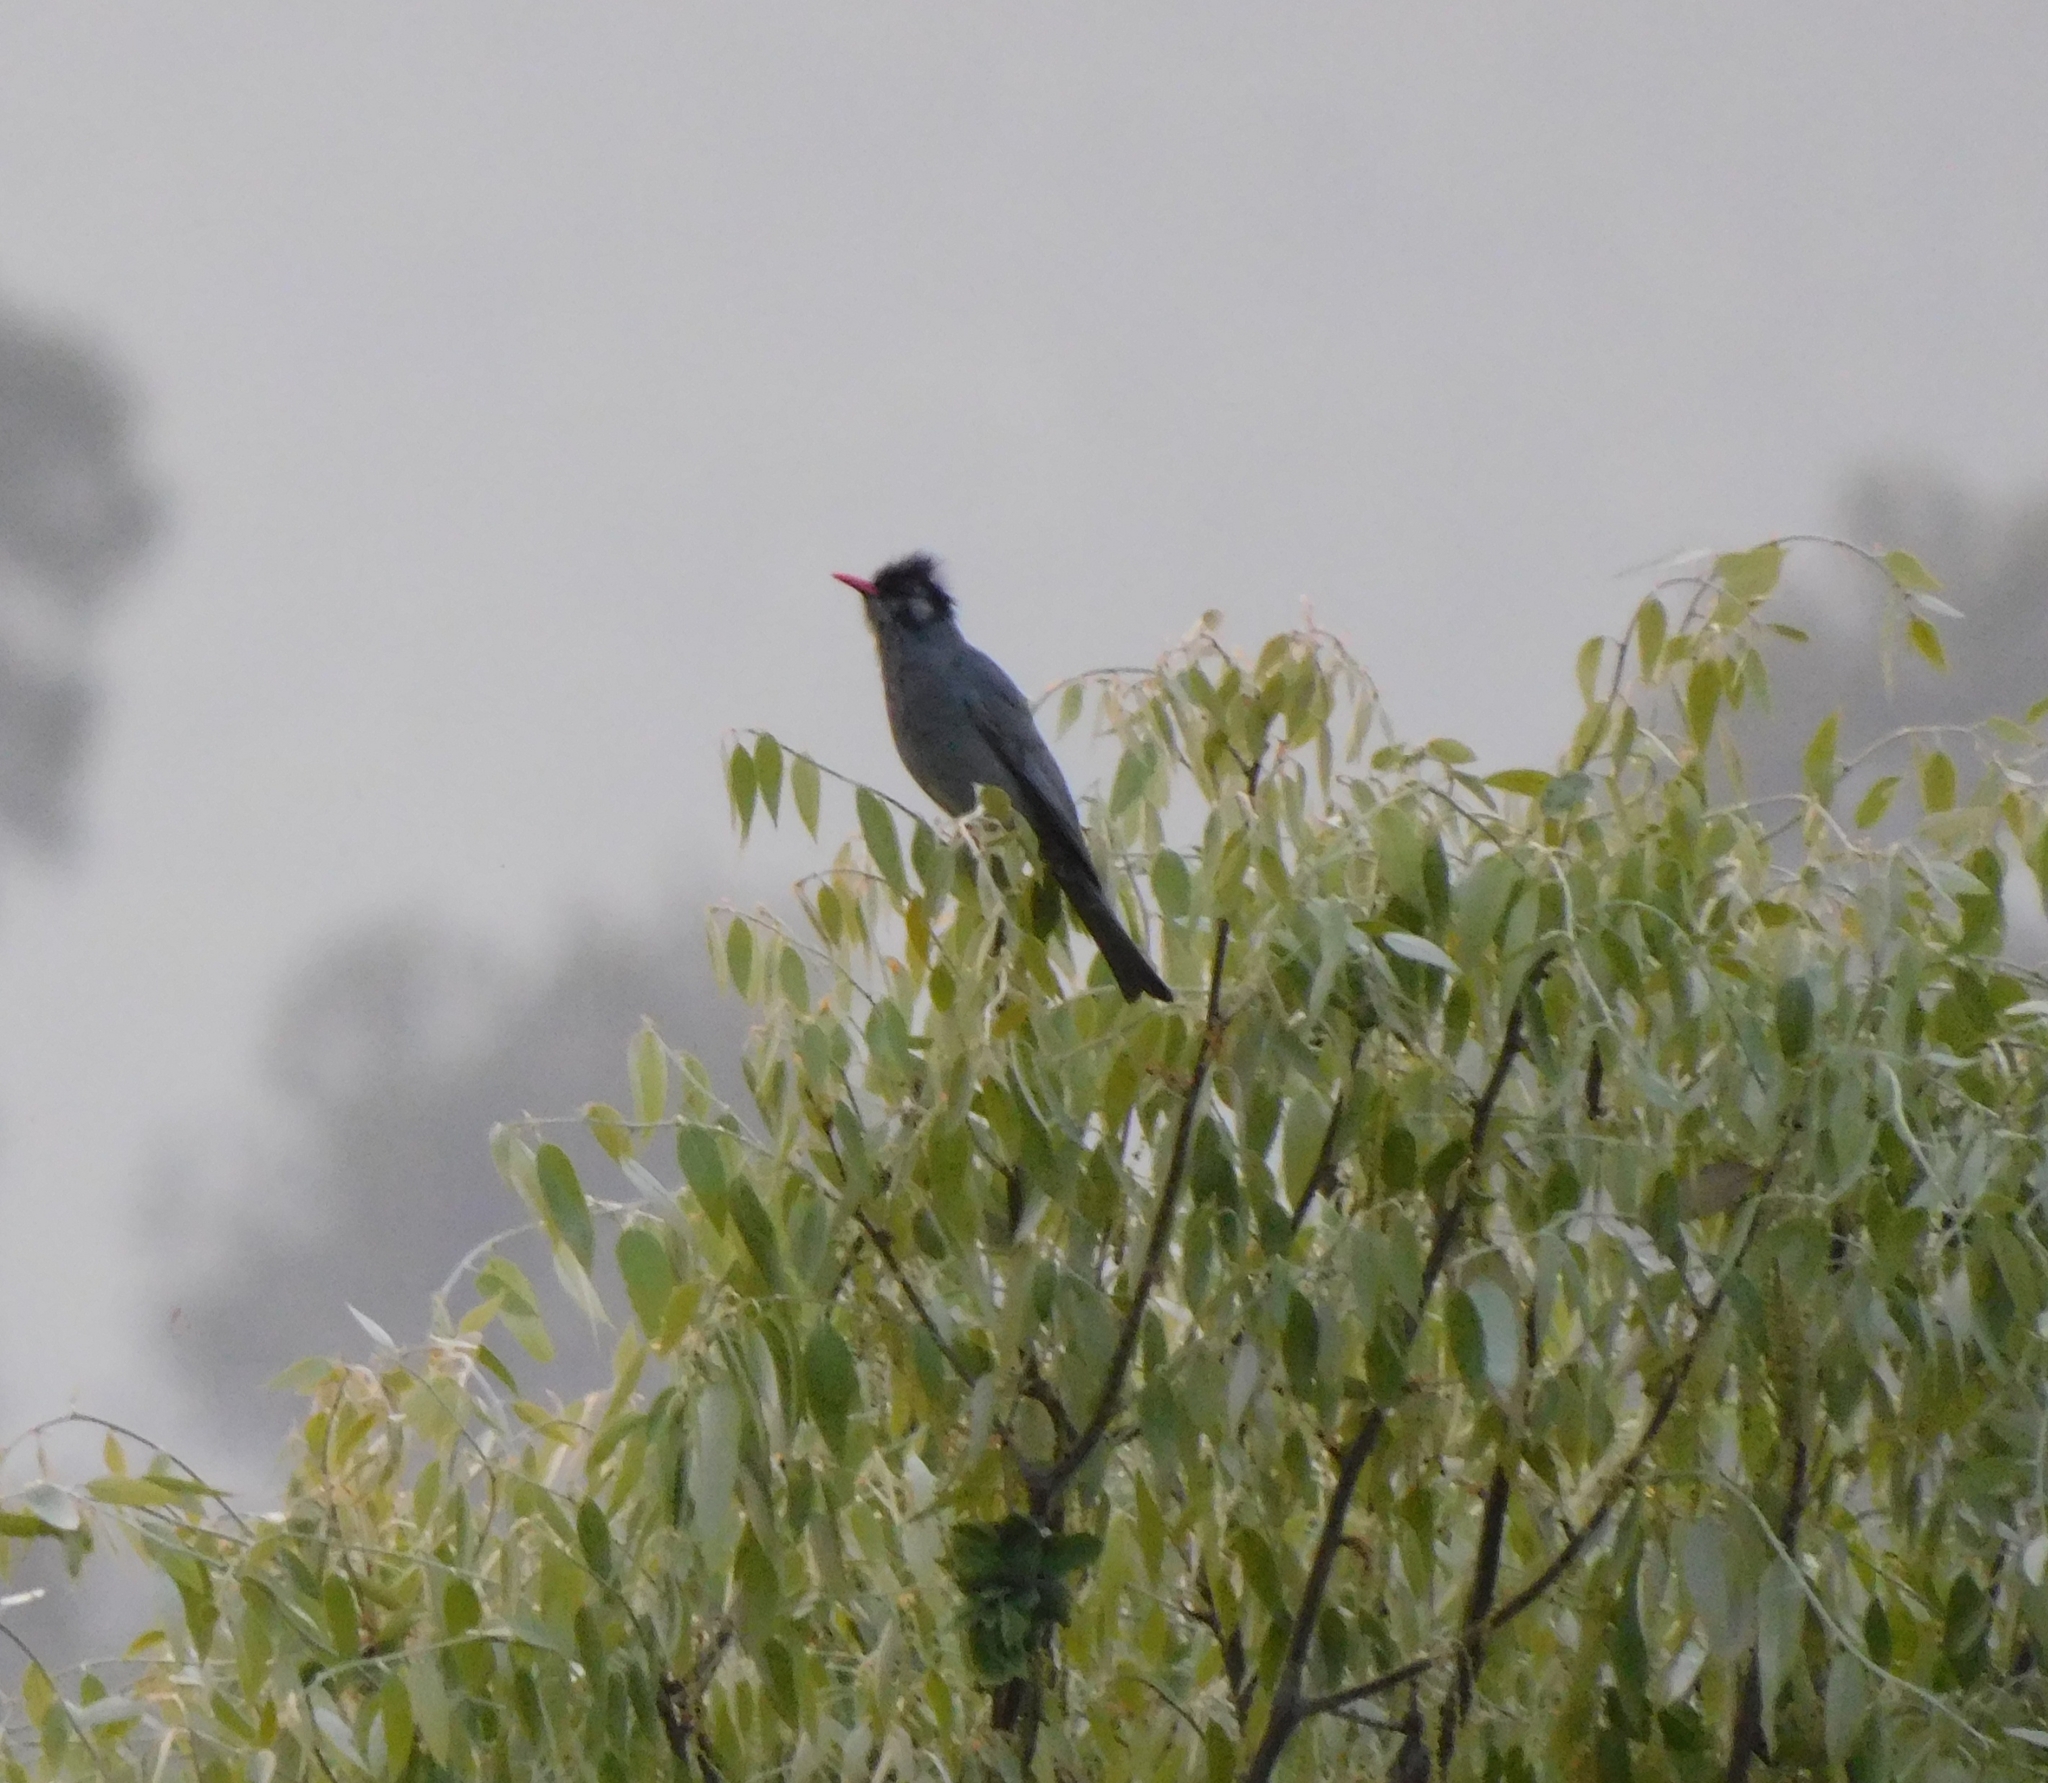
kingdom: Animalia
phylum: Chordata
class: Aves
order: Passeriformes
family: Pycnonotidae
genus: Hypsipetes
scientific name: Hypsipetes leucocephalus
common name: Black bulbul
